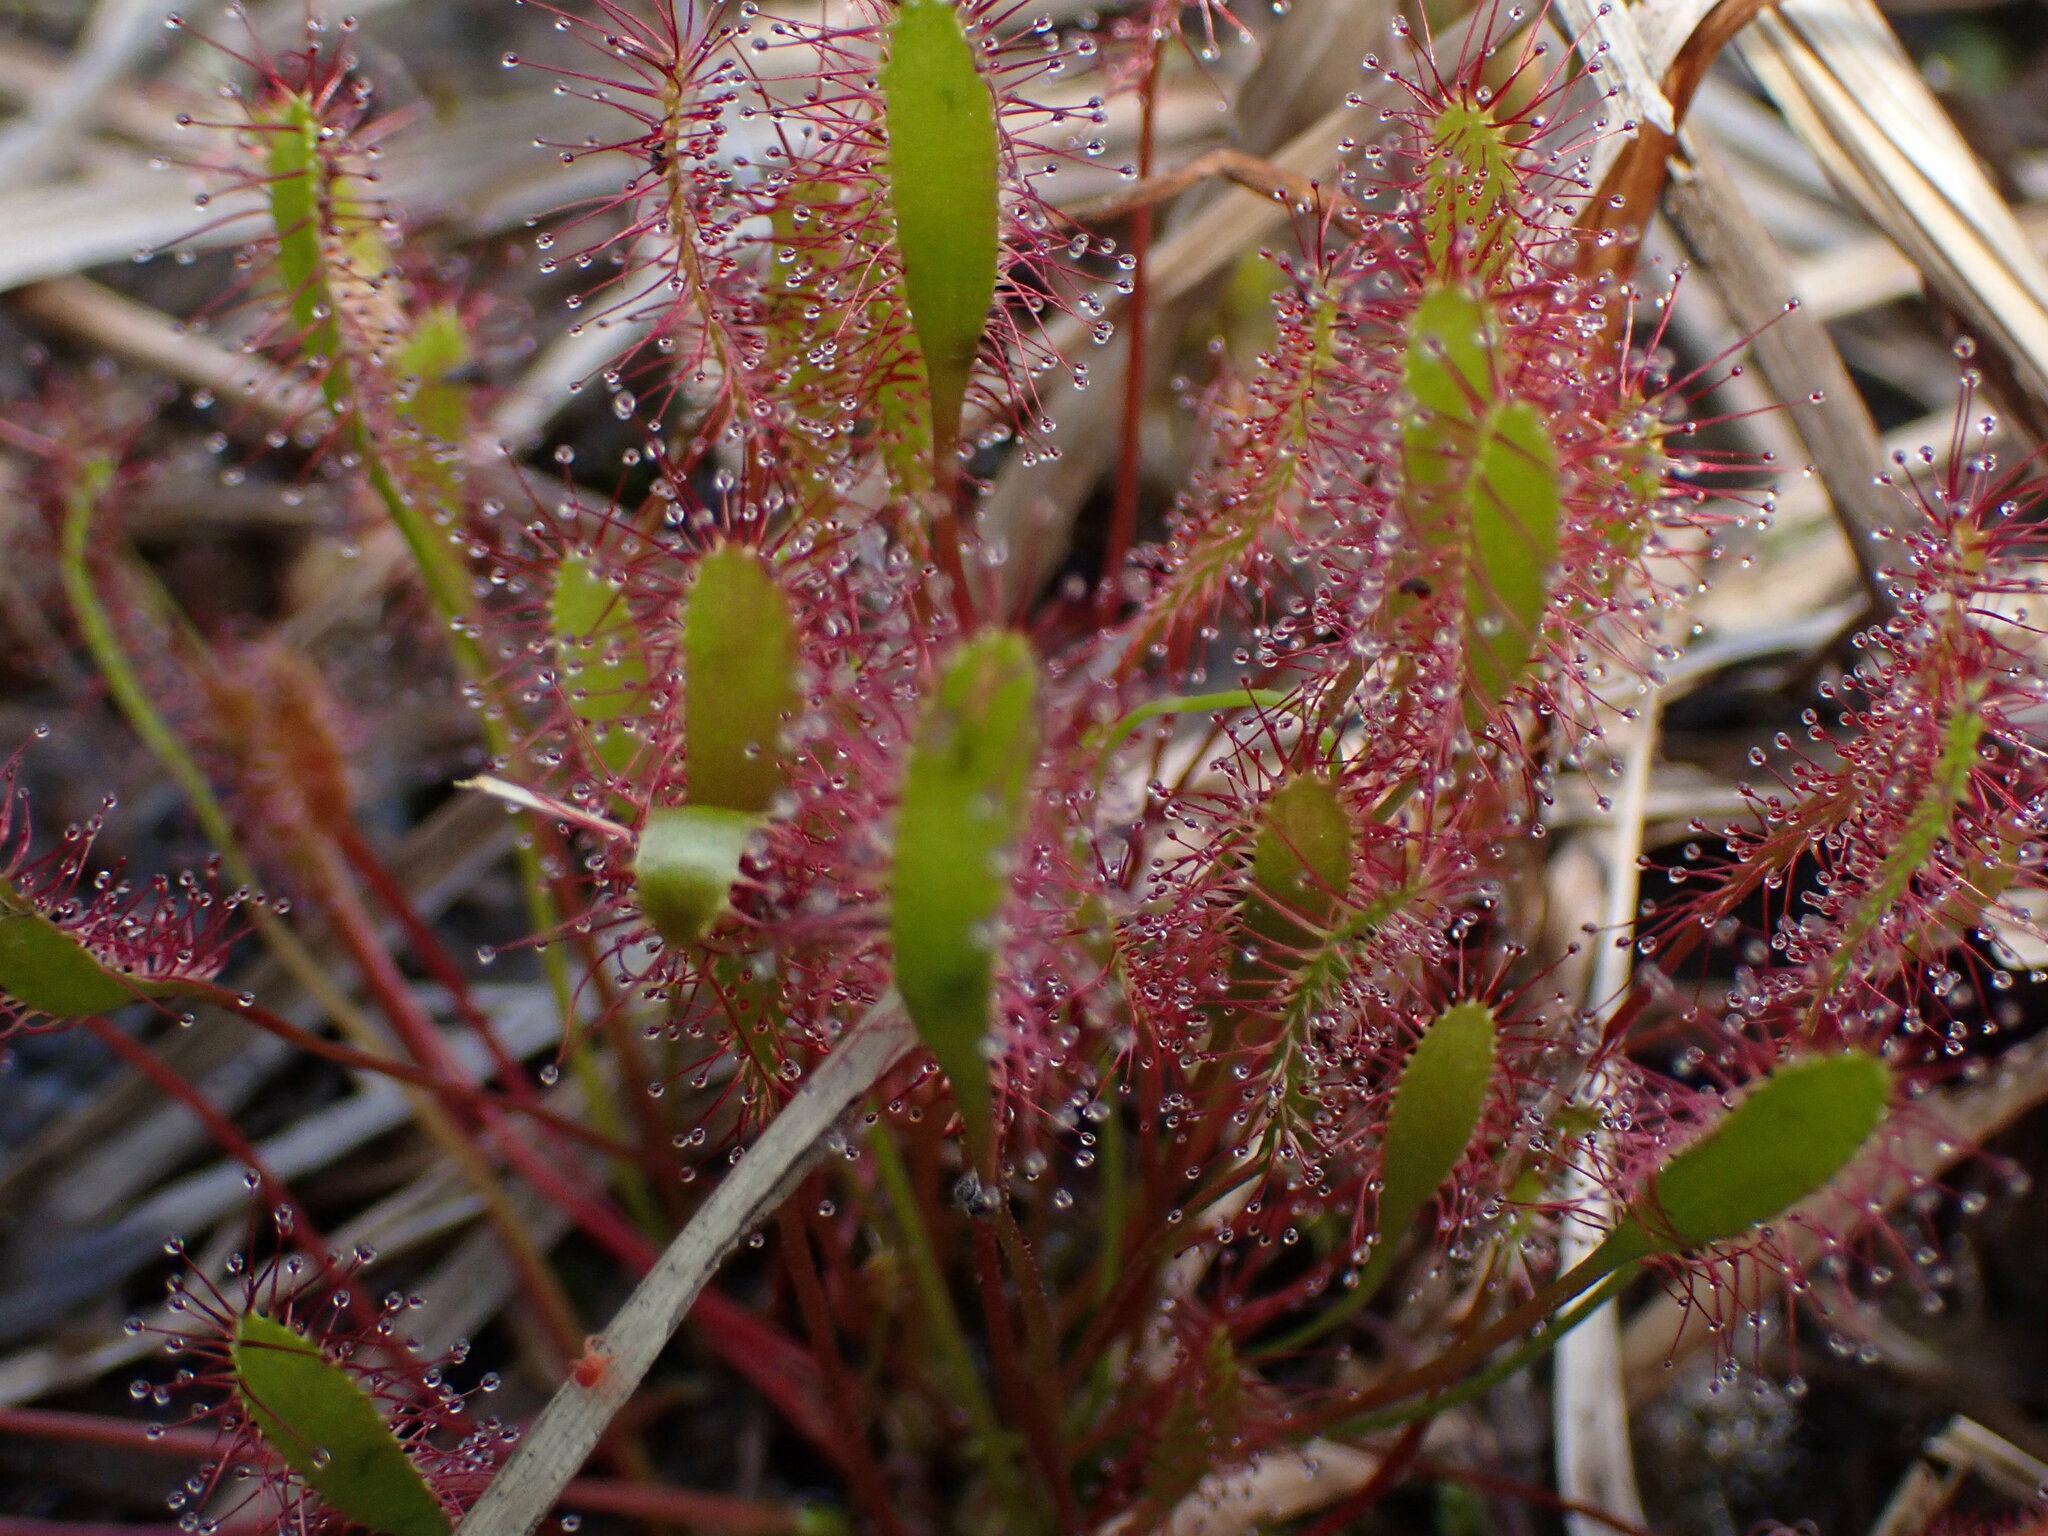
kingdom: Plantae
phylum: Tracheophyta
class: Magnoliopsida
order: Caryophyllales
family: Droseraceae
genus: Drosera
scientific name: Drosera anglica
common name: Great sundew
